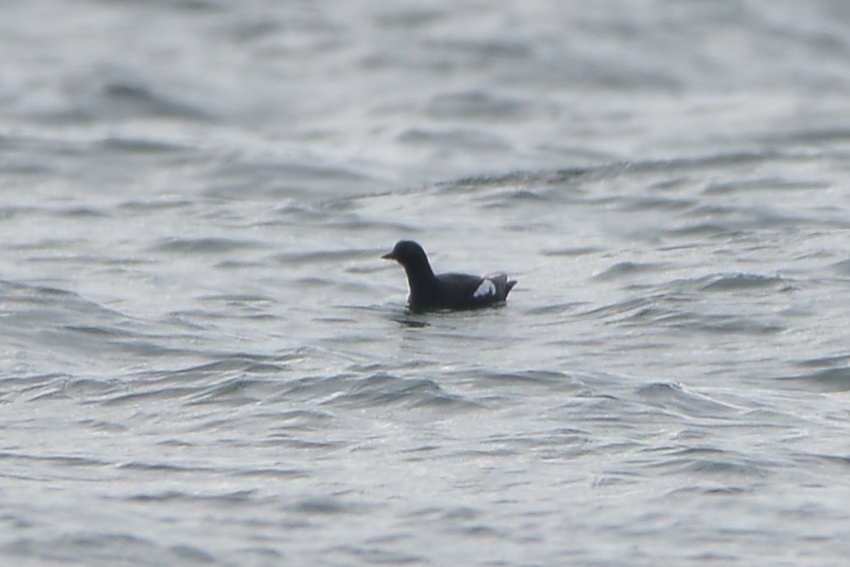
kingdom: Animalia
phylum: Chordata
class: Aves
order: Charadriiformes
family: Alcidae
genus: Cepphus
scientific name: Cepphus columba
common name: Pigeon guillemot
